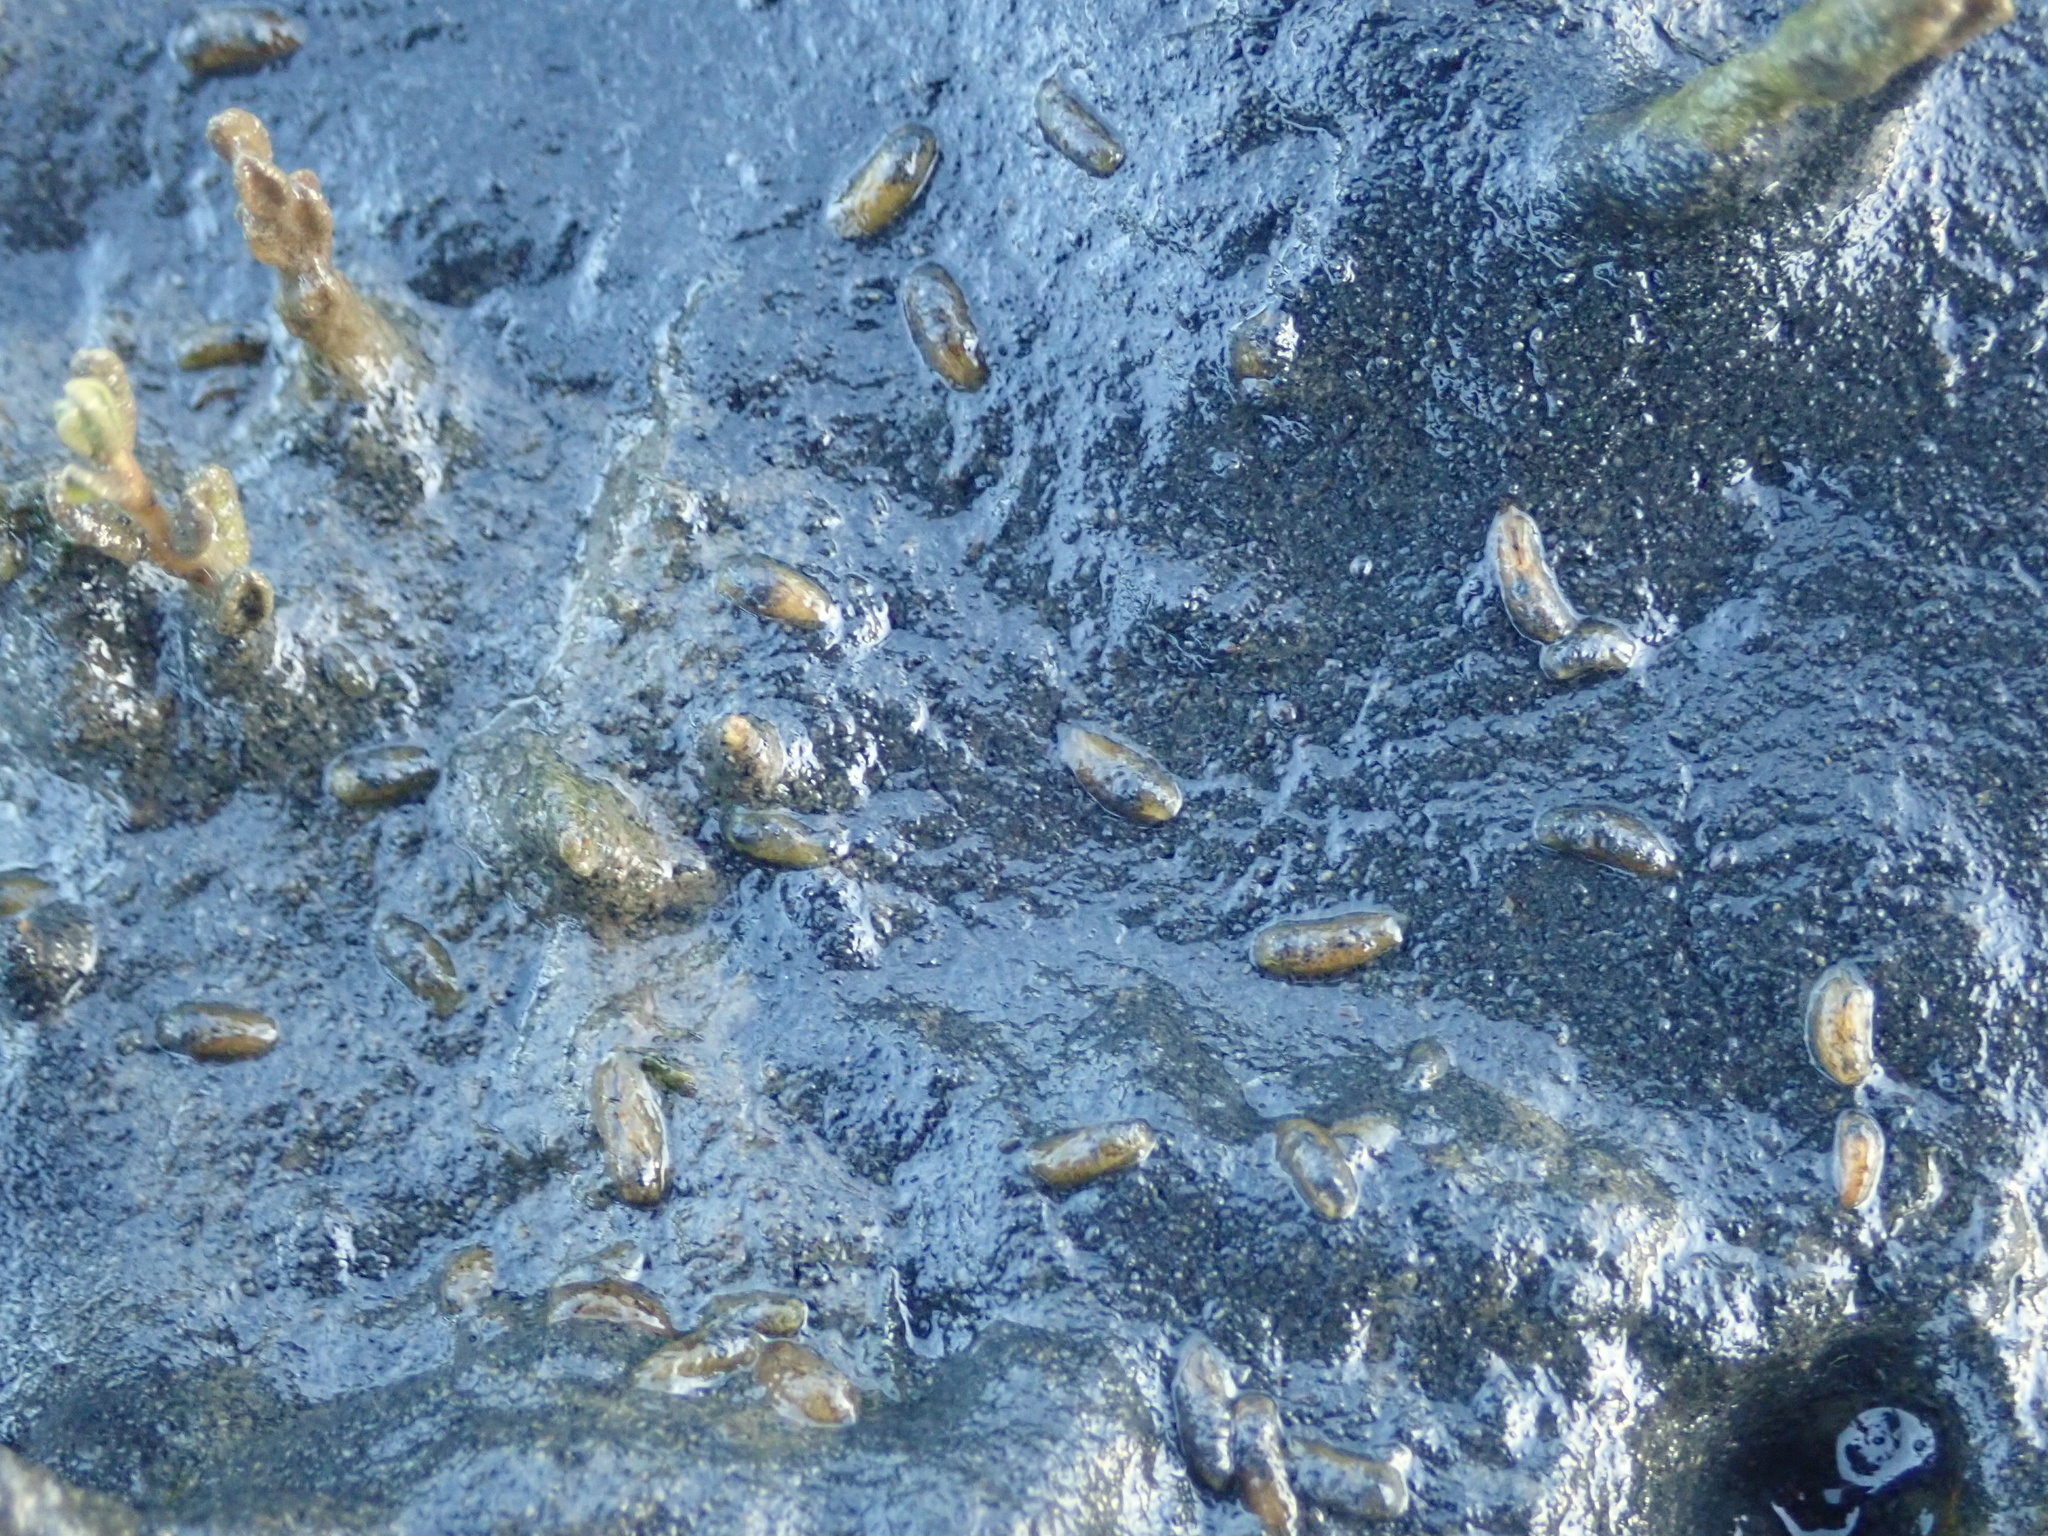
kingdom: Animalia
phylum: Mollusca
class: Gastropoda
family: Limapontiidae
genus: Alderia
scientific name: Alderia modesta
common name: Modest alderia
